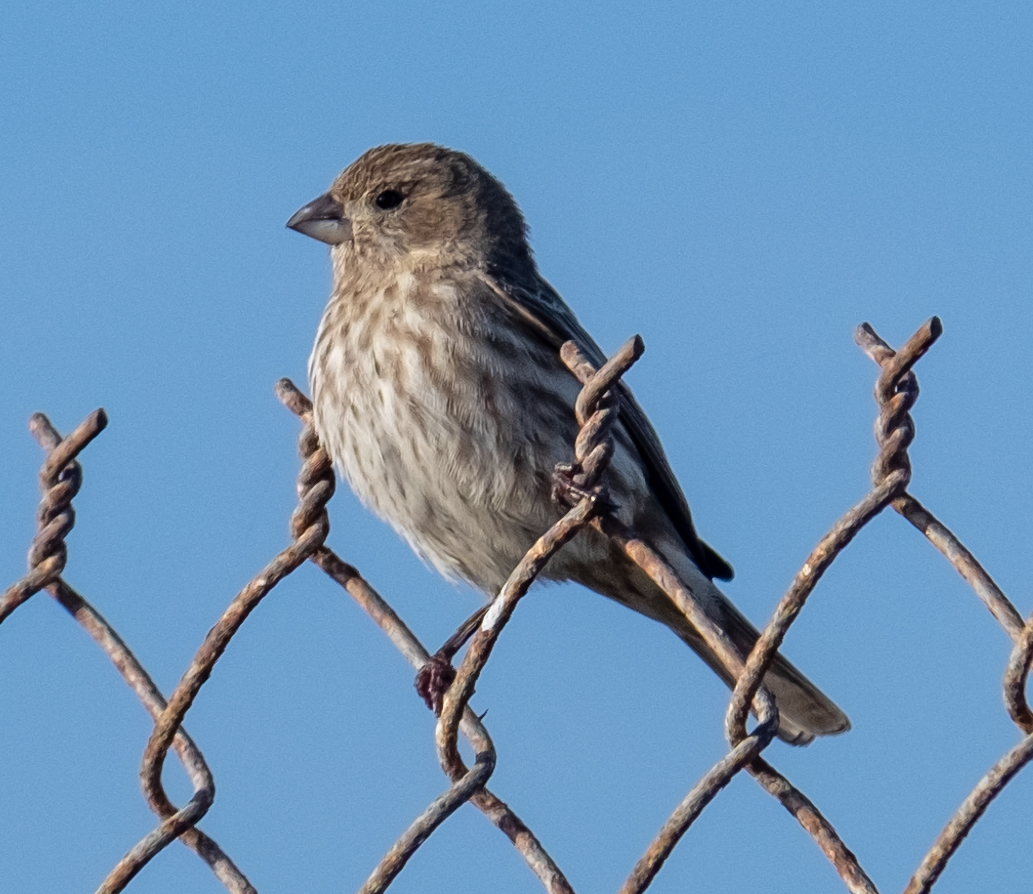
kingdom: Animalia
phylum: Chordata
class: Aves
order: Passeriformes
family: Fringillidae
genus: Haemorhous
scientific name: Haemorhous mexicanus
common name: House finch
